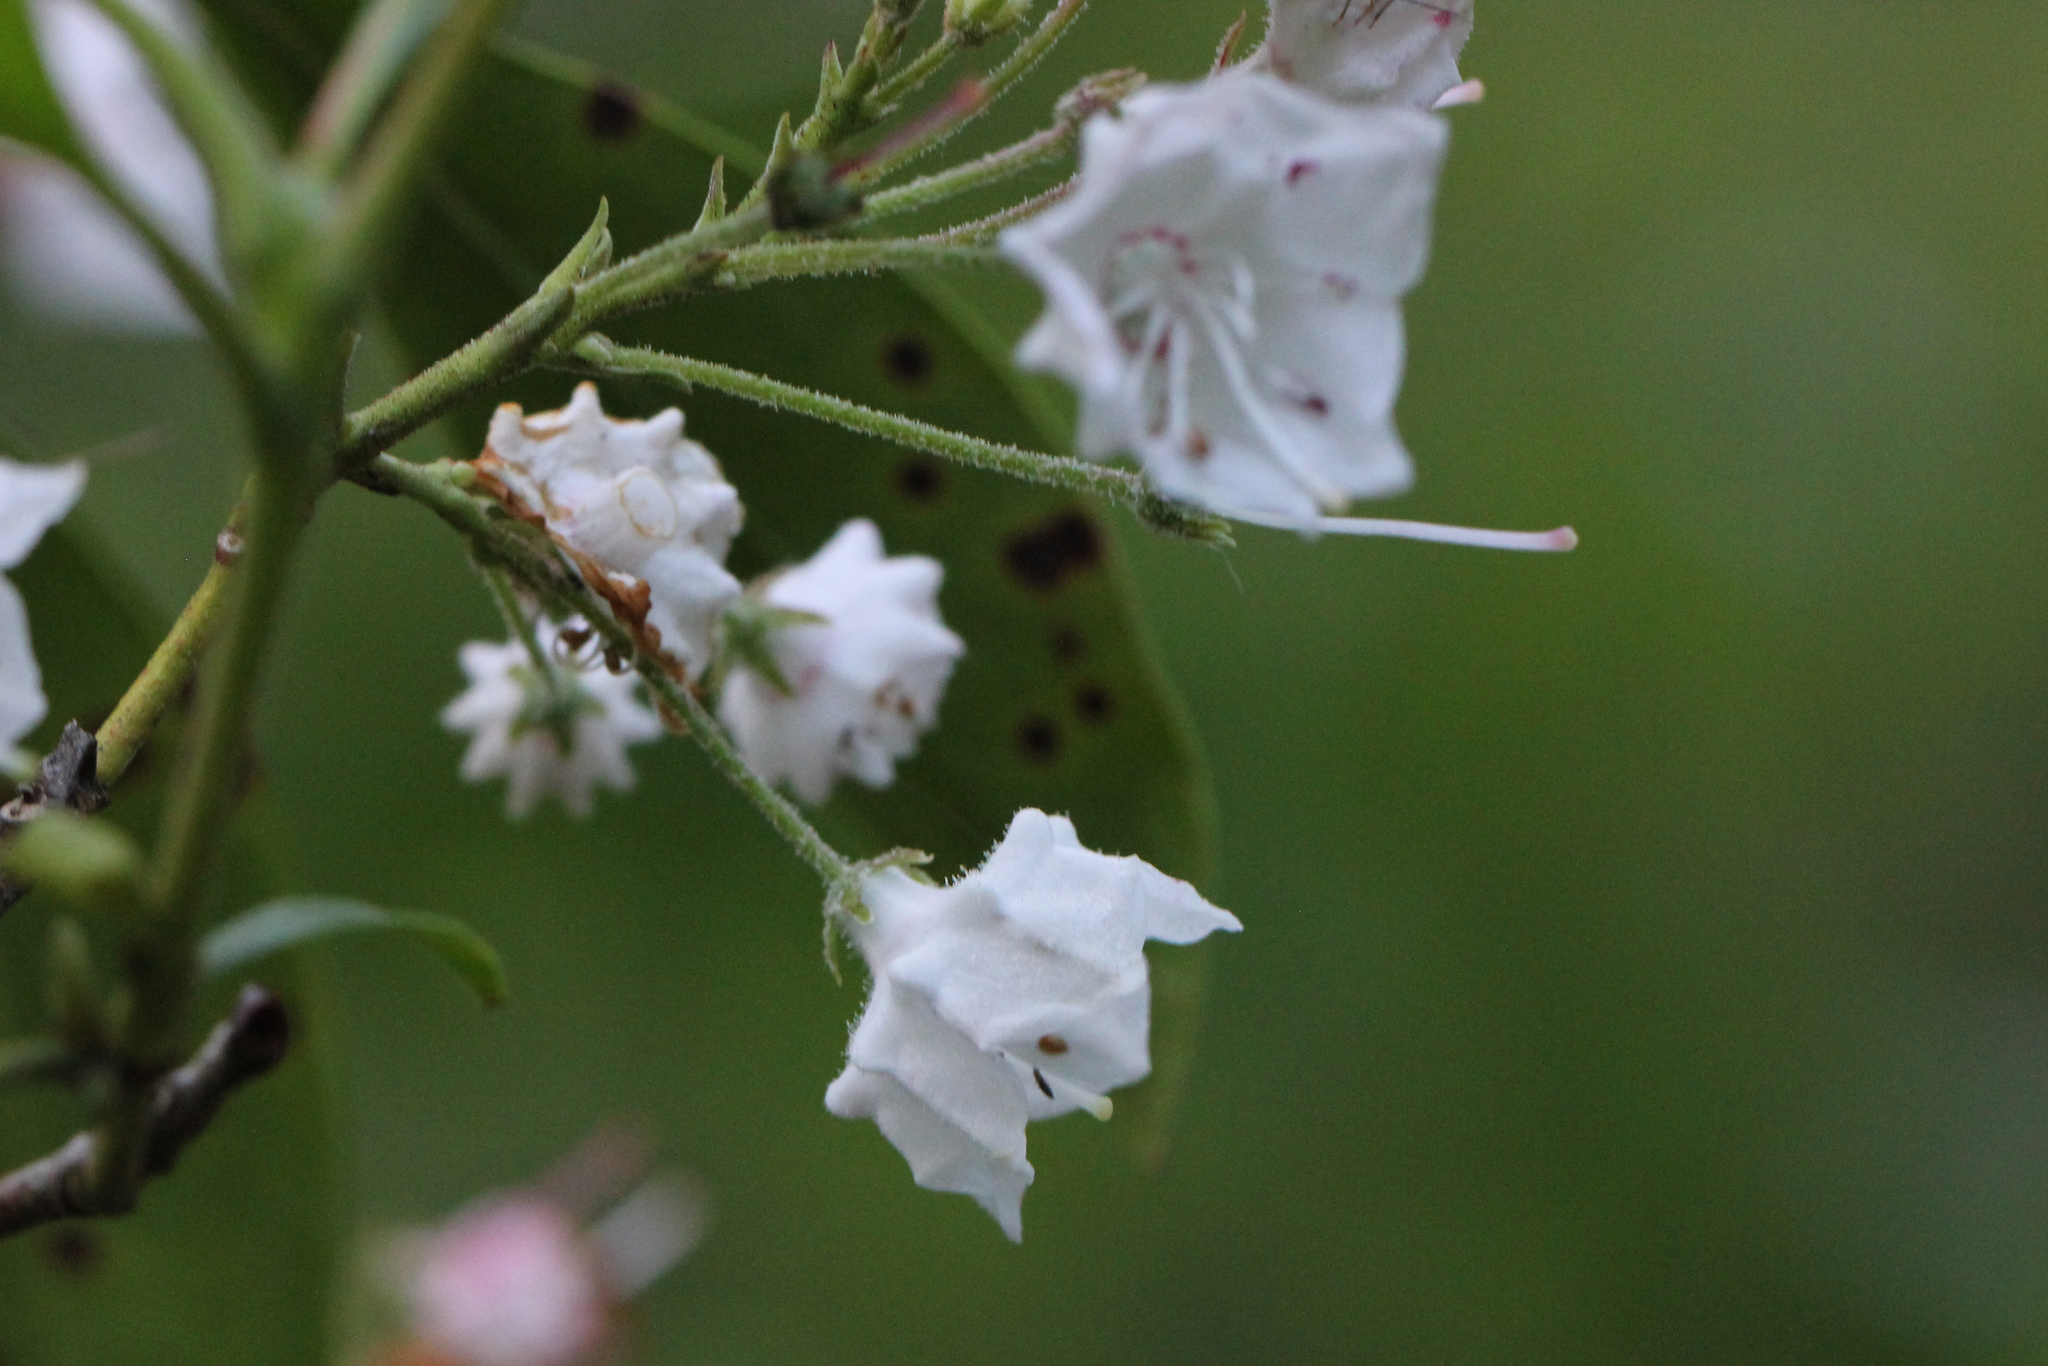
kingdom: Plantae
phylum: Tracheophyta
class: Magnoliopsida
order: Ericales
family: Ericaceae
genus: Kalmia
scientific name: Kalmia latifolia
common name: Mountain-laurel
